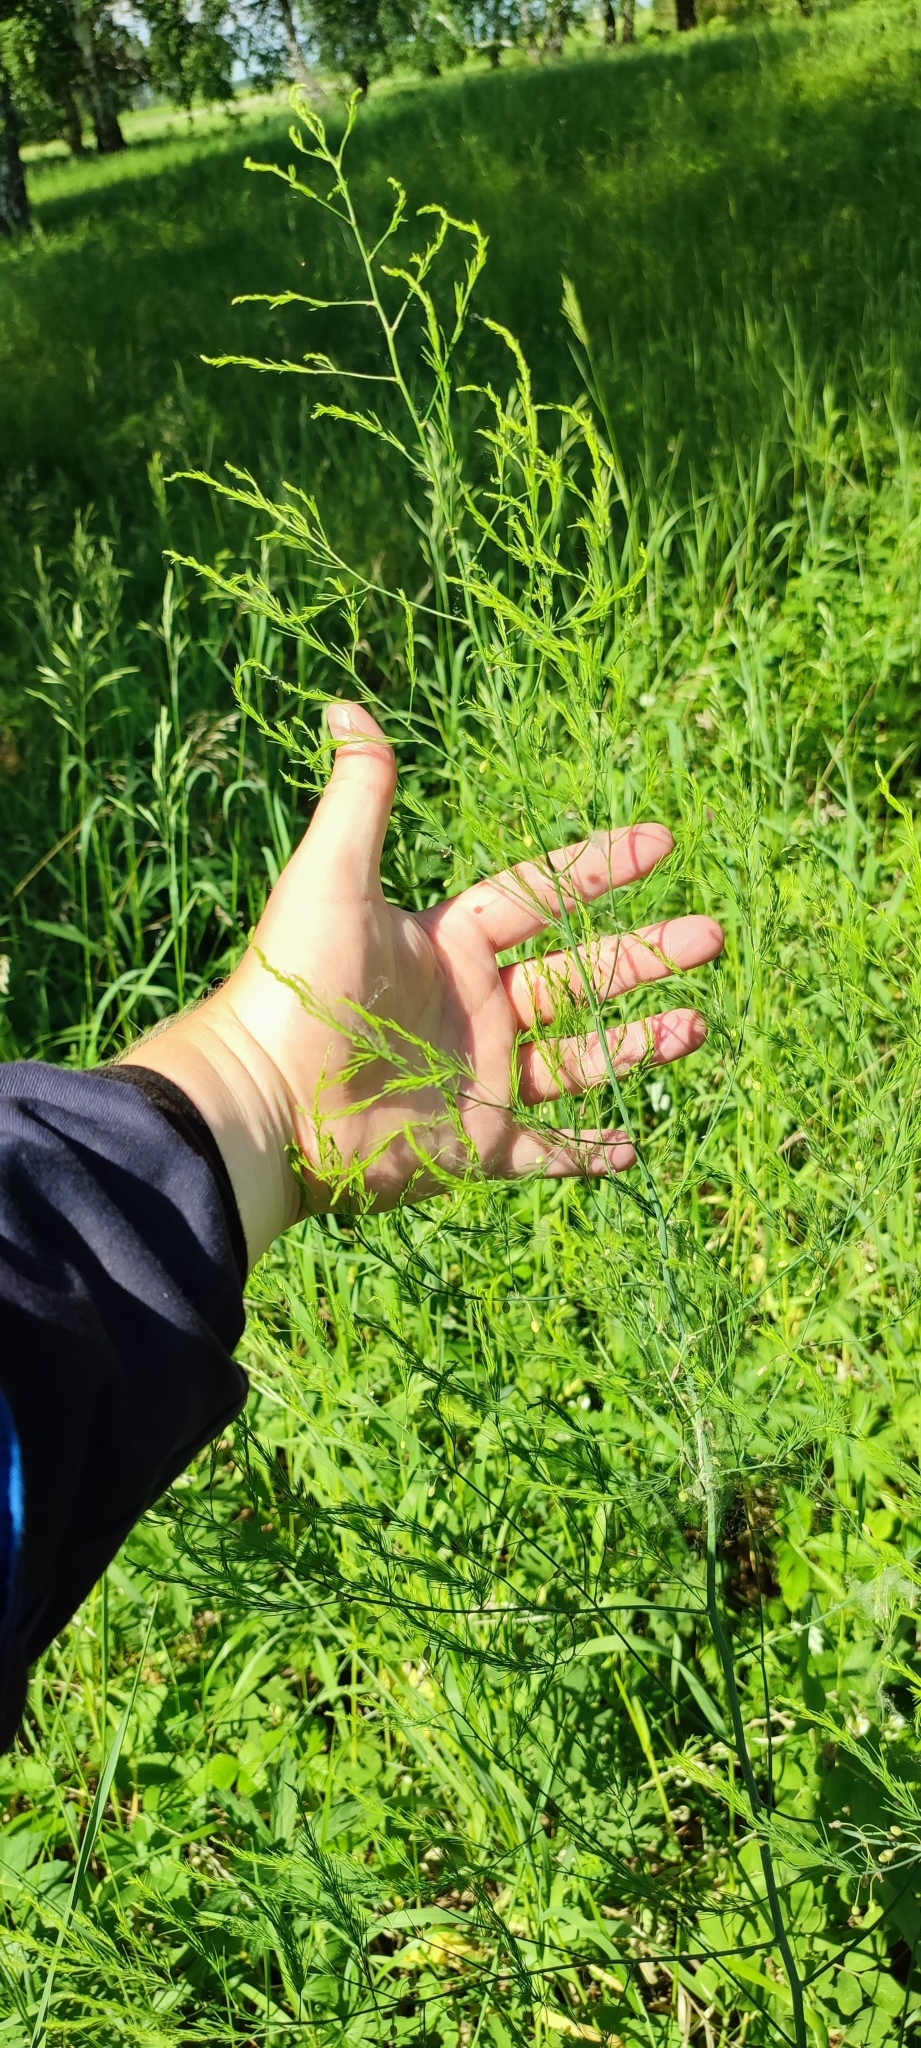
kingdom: Plantae
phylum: Tracheophyta
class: Liliopsida
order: Asparagales
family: Asparagaceae
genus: Asparagus
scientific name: Asparagus officinalis
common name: Garden asparagus
